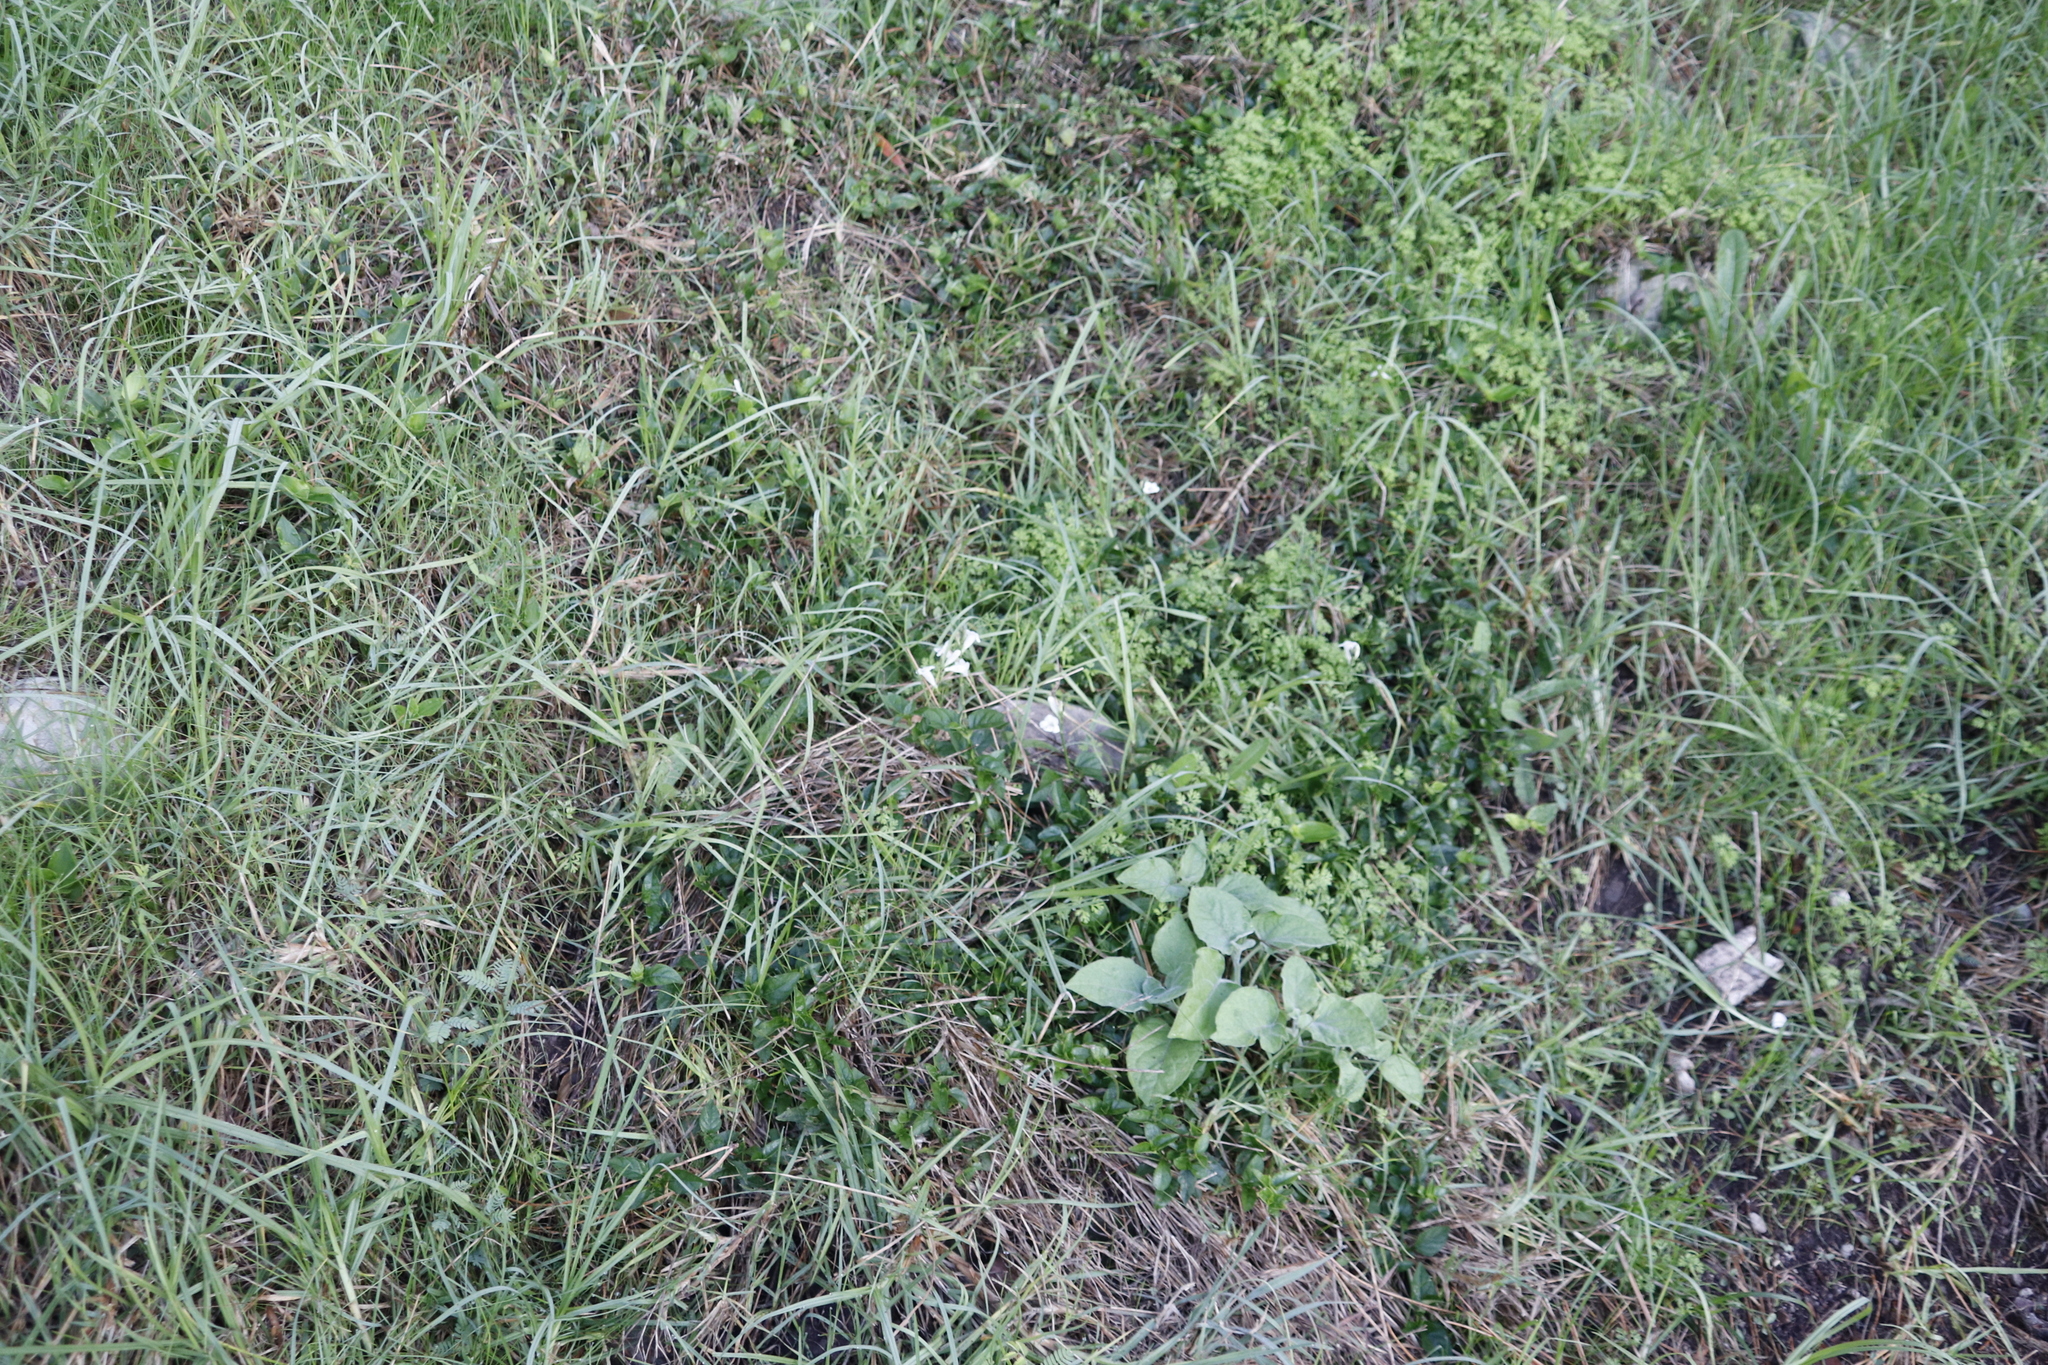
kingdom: Plantae
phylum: Tracheophyta
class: Magnoliopsida
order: Lamiales
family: Acanthaceae
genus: Asystasia
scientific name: Asystasia intrusa
